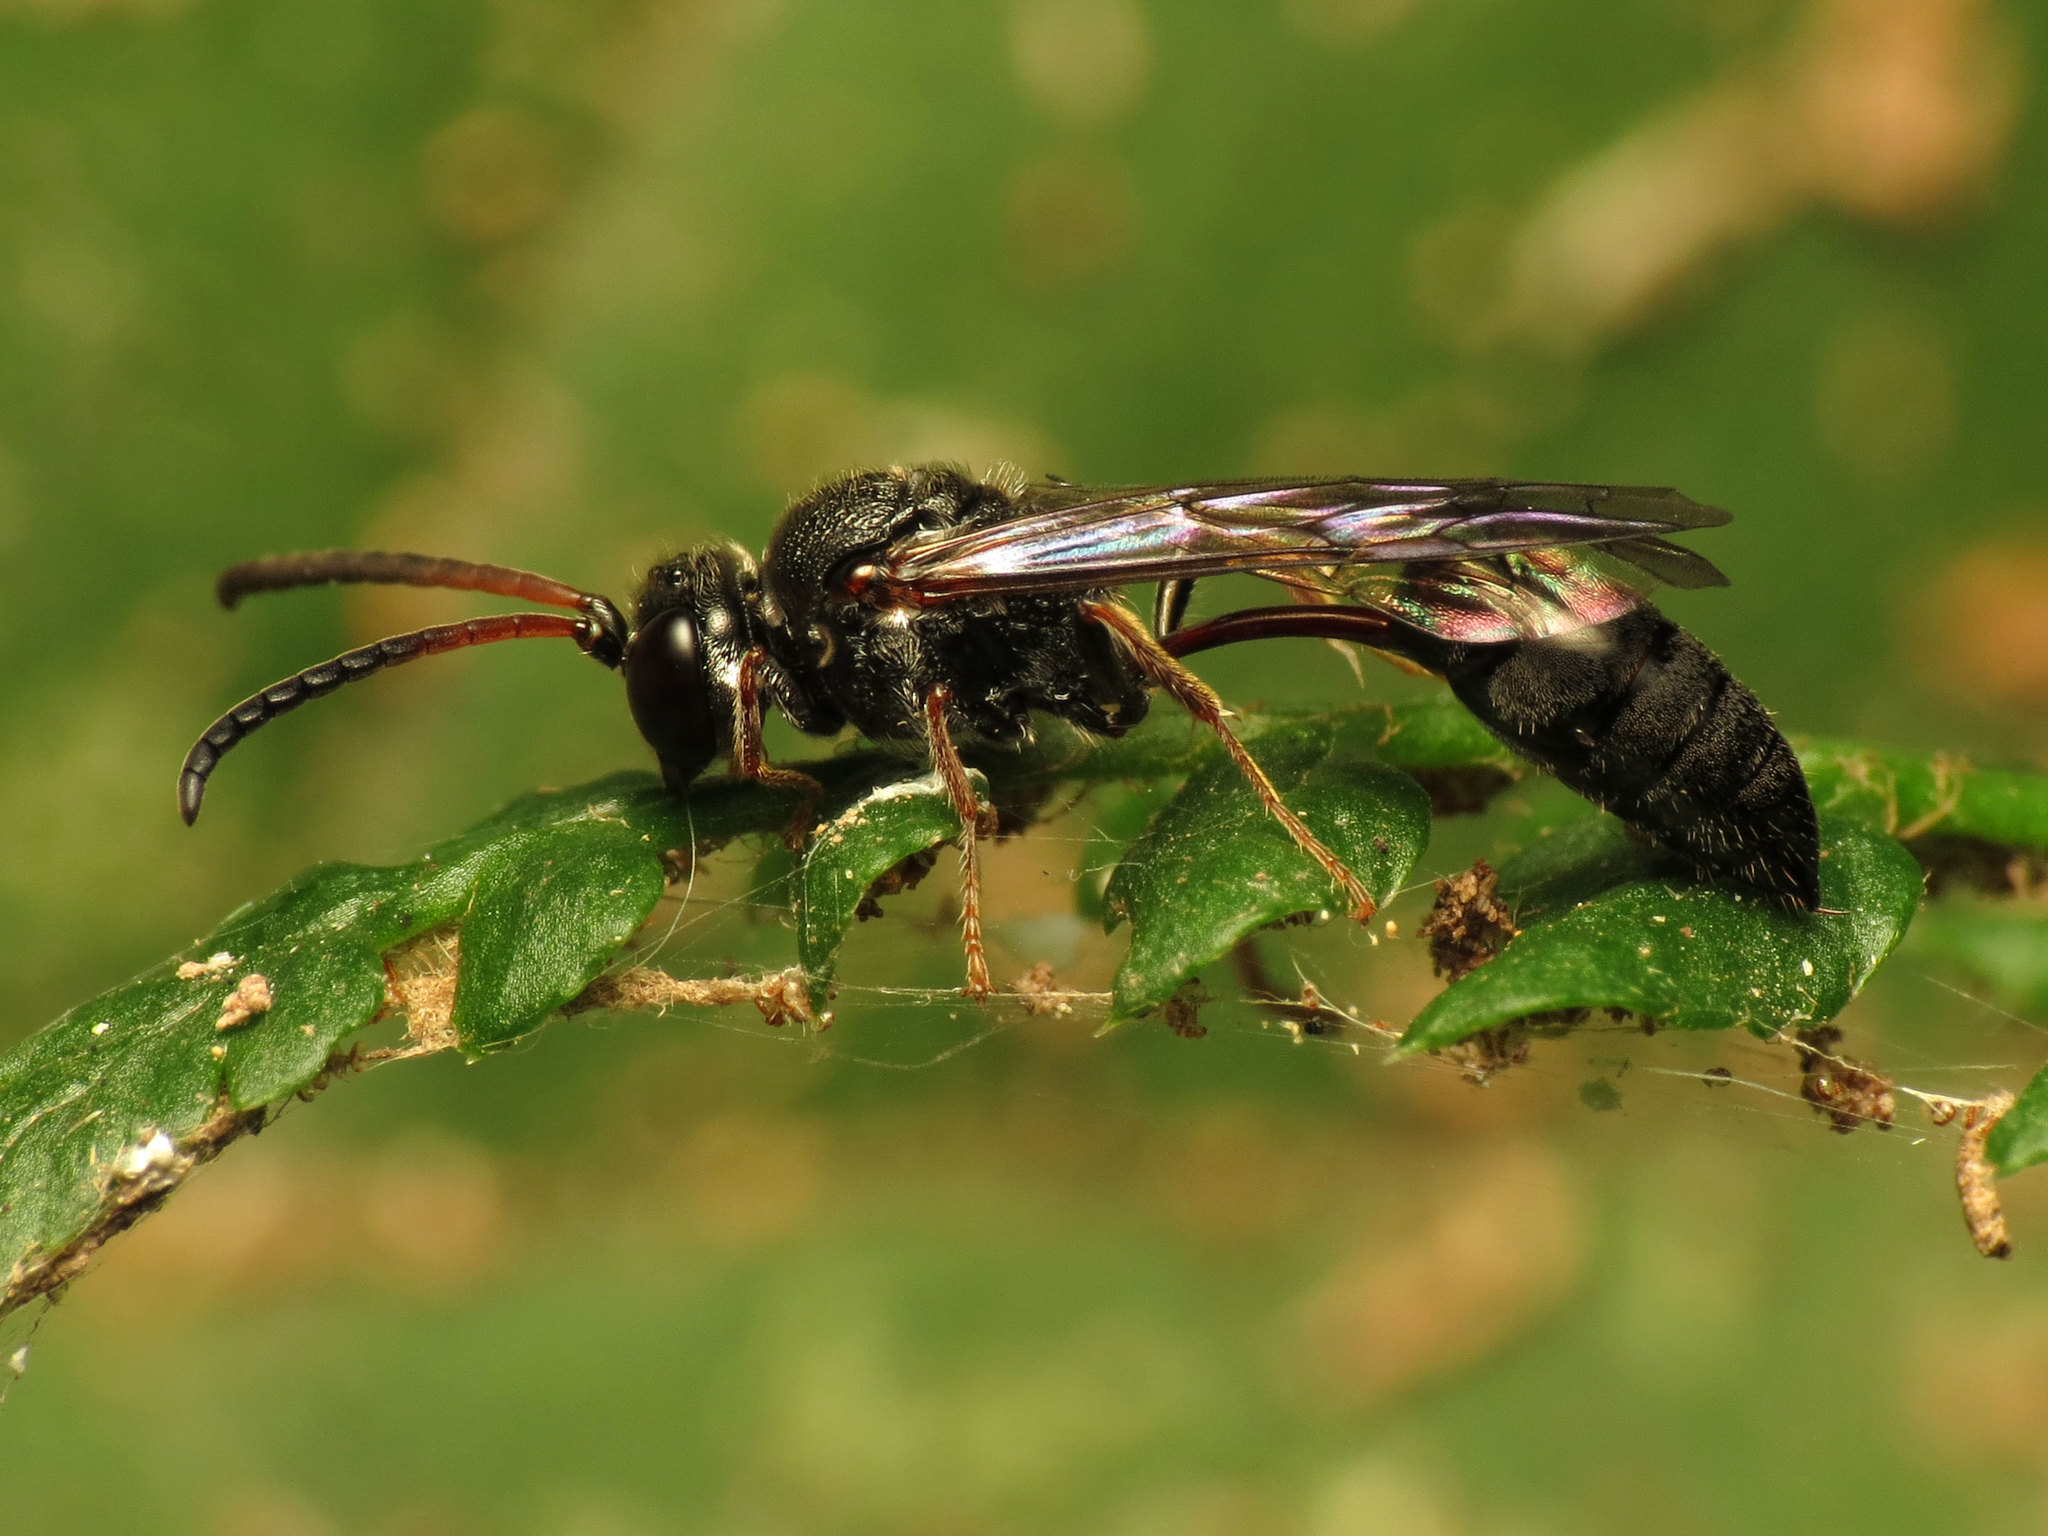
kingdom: Animalia
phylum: Arthropoda
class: Insecta
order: Hymenoptera
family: Crabronidae
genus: Psen
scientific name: Psen erythropoda
